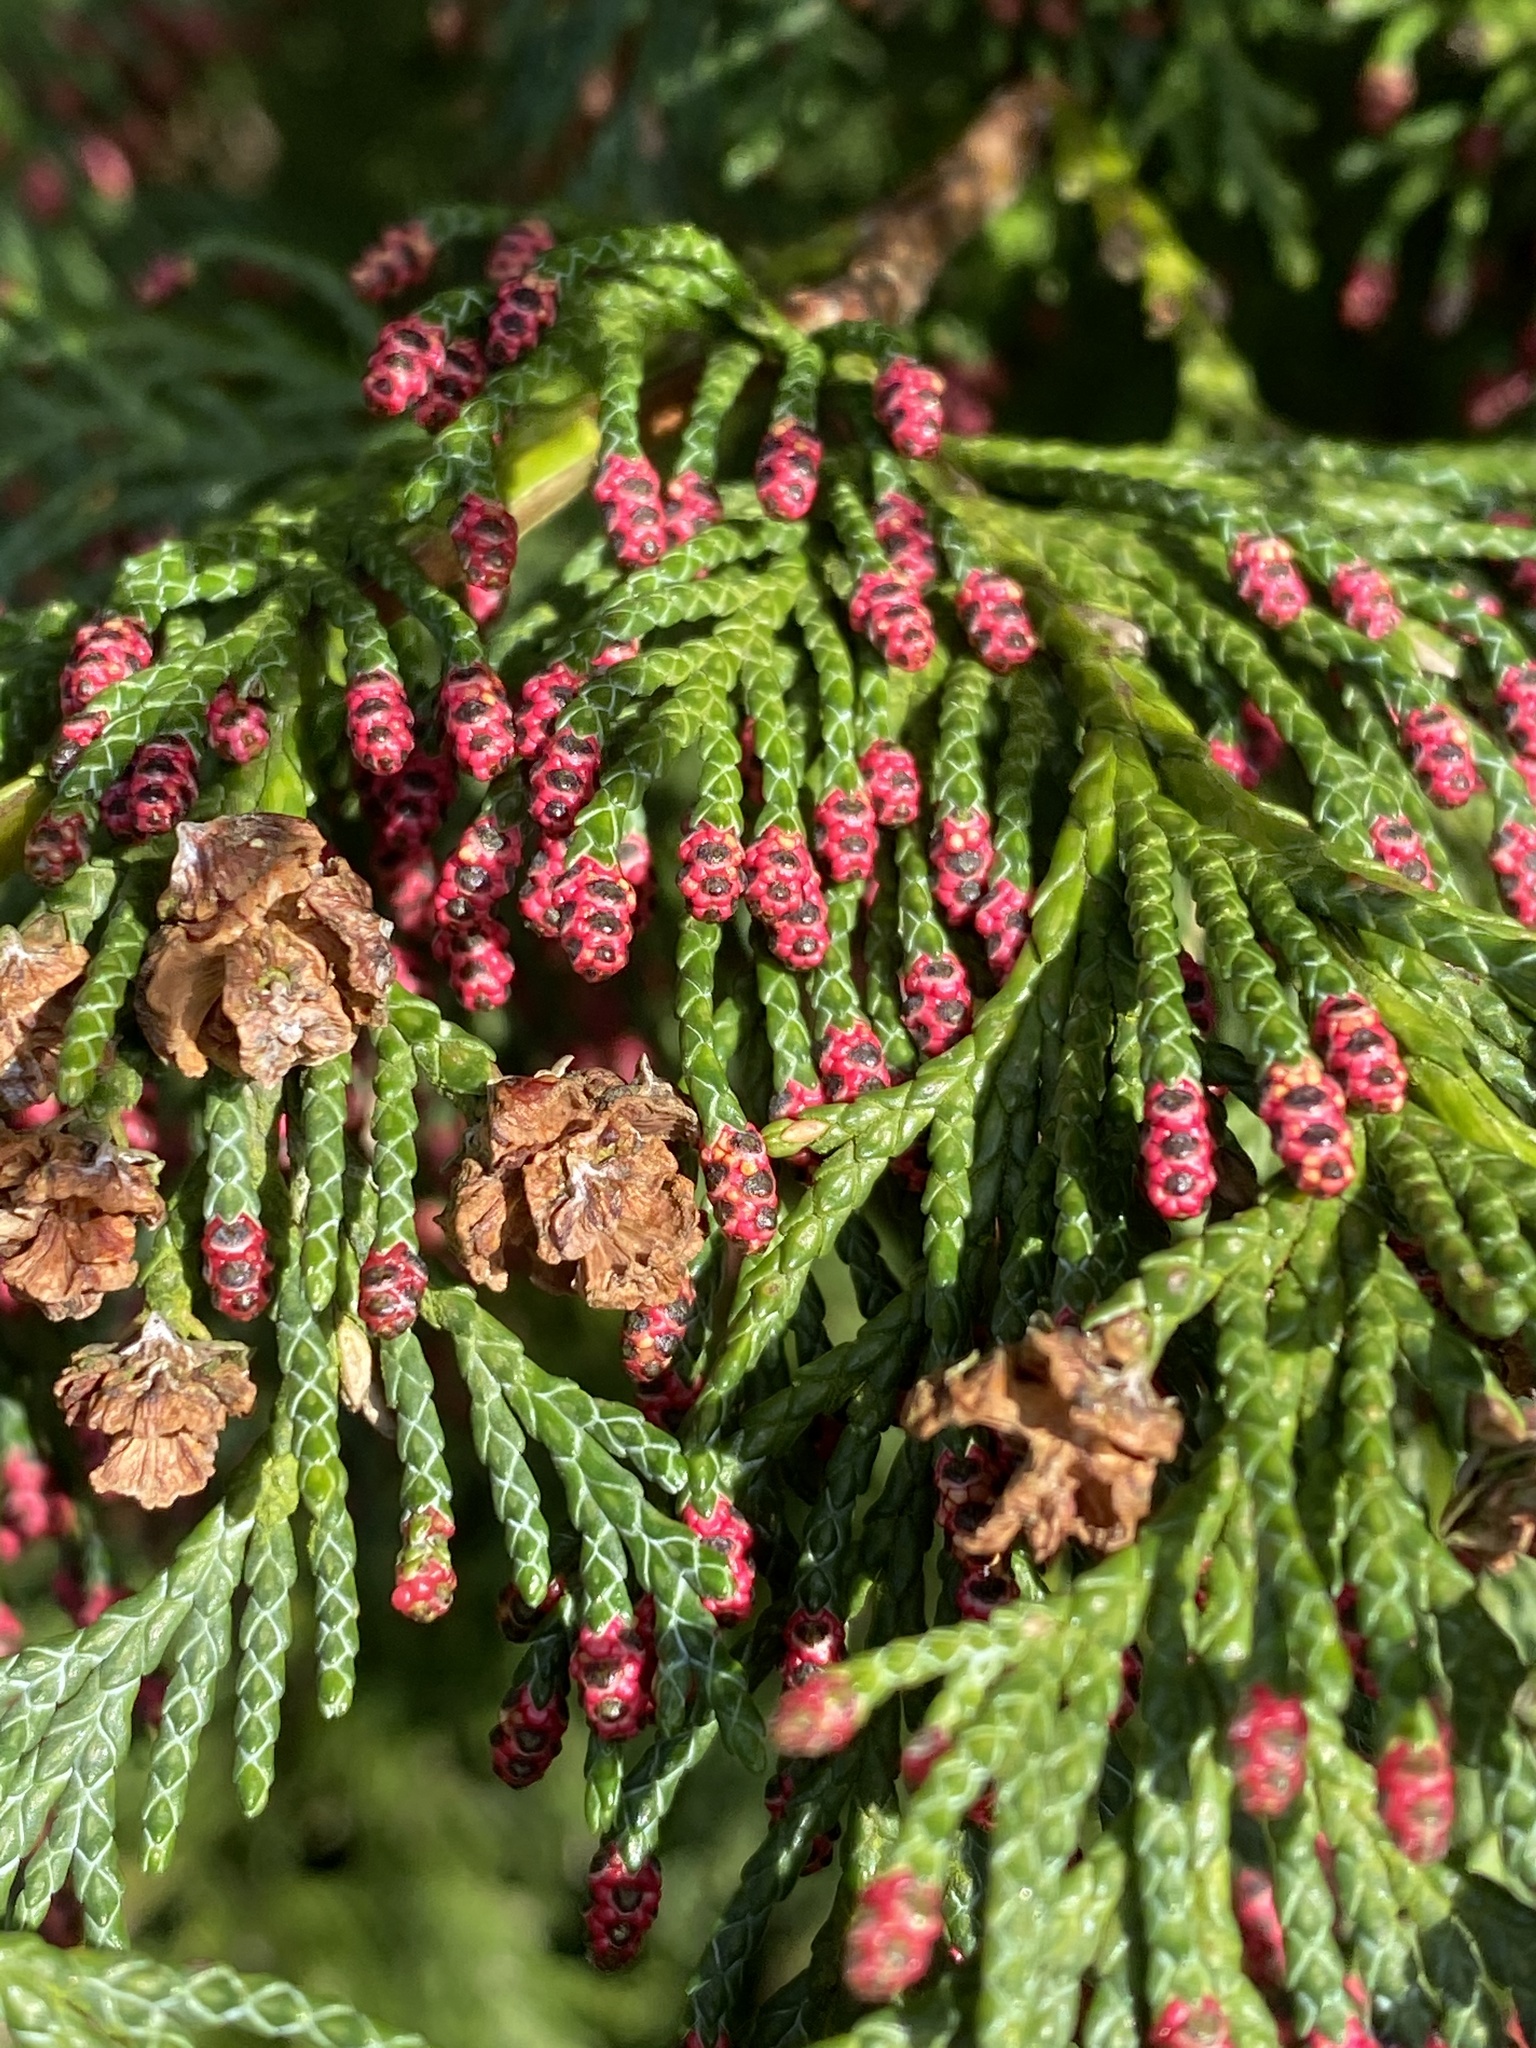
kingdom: Plantae
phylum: Tracheophyta
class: Pinopsida
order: Pinales
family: Cupressaceae
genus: Chamaecyparis
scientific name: Chamaecyparis lawsoniana
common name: Lawson's cypress
